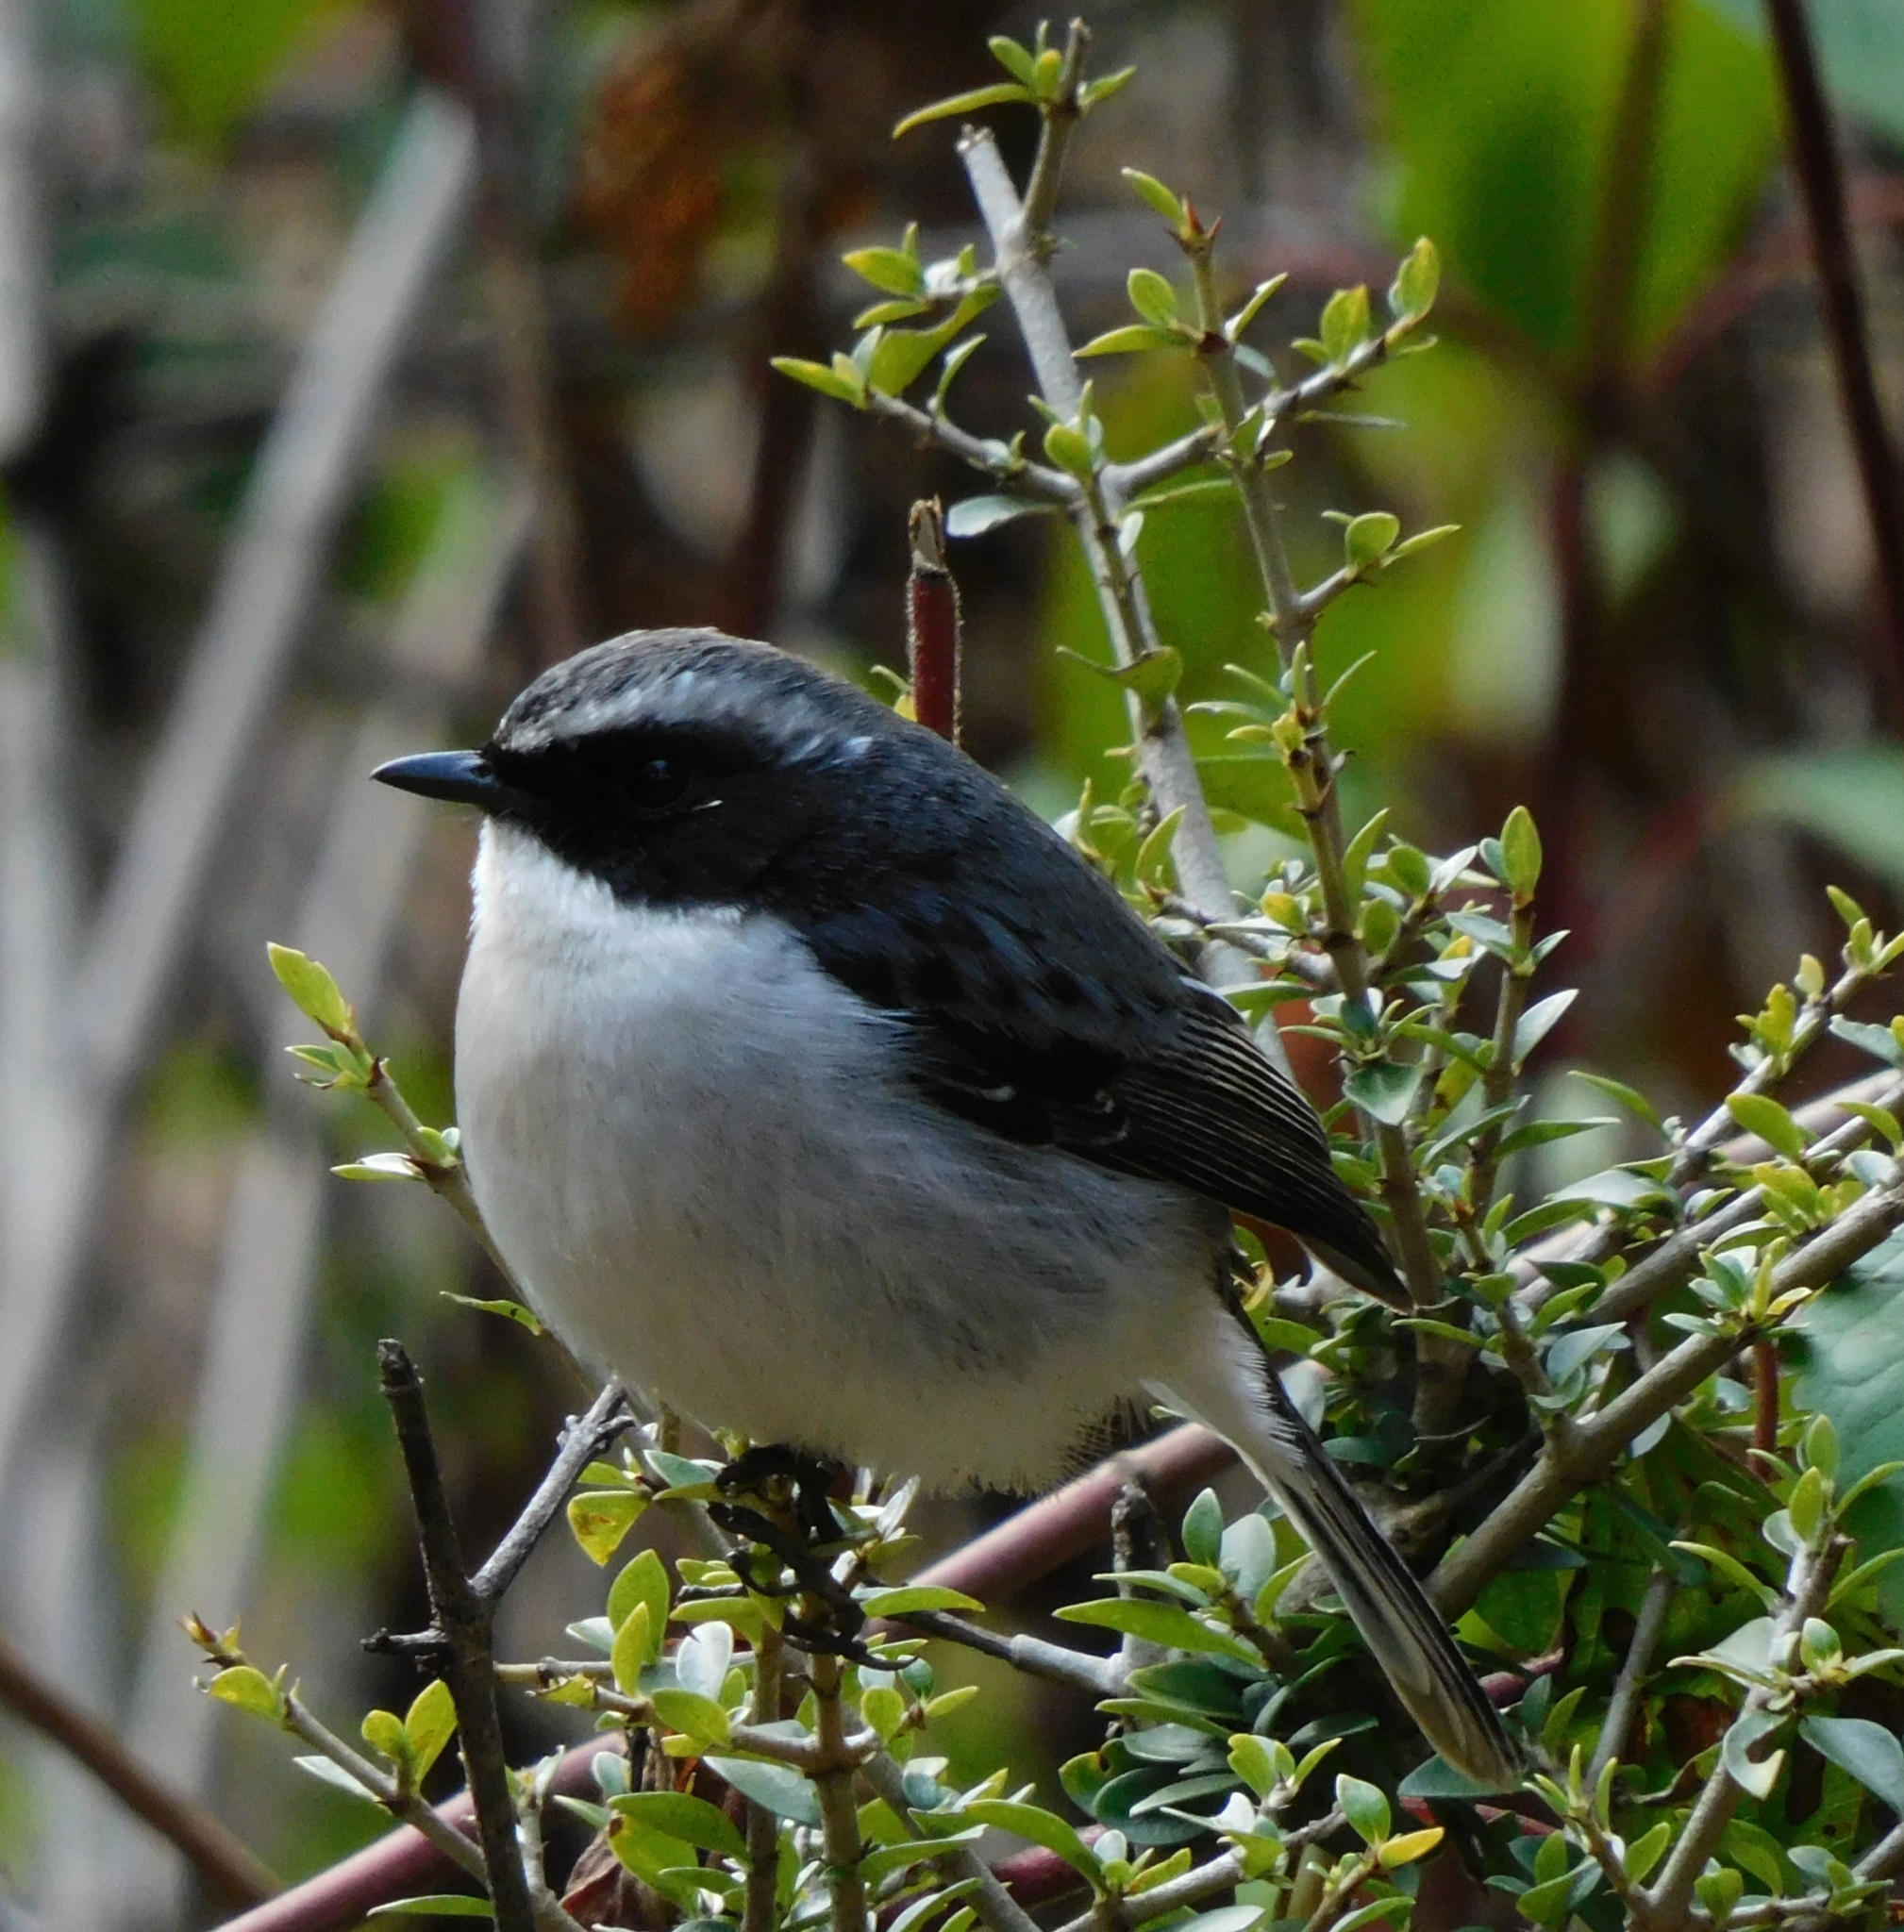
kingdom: Animalia
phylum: Chordata
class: Aves
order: Passeriformes
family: Muscicapidae
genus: Saxicola
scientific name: Saxicola ferreus
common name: Grey bush chat
